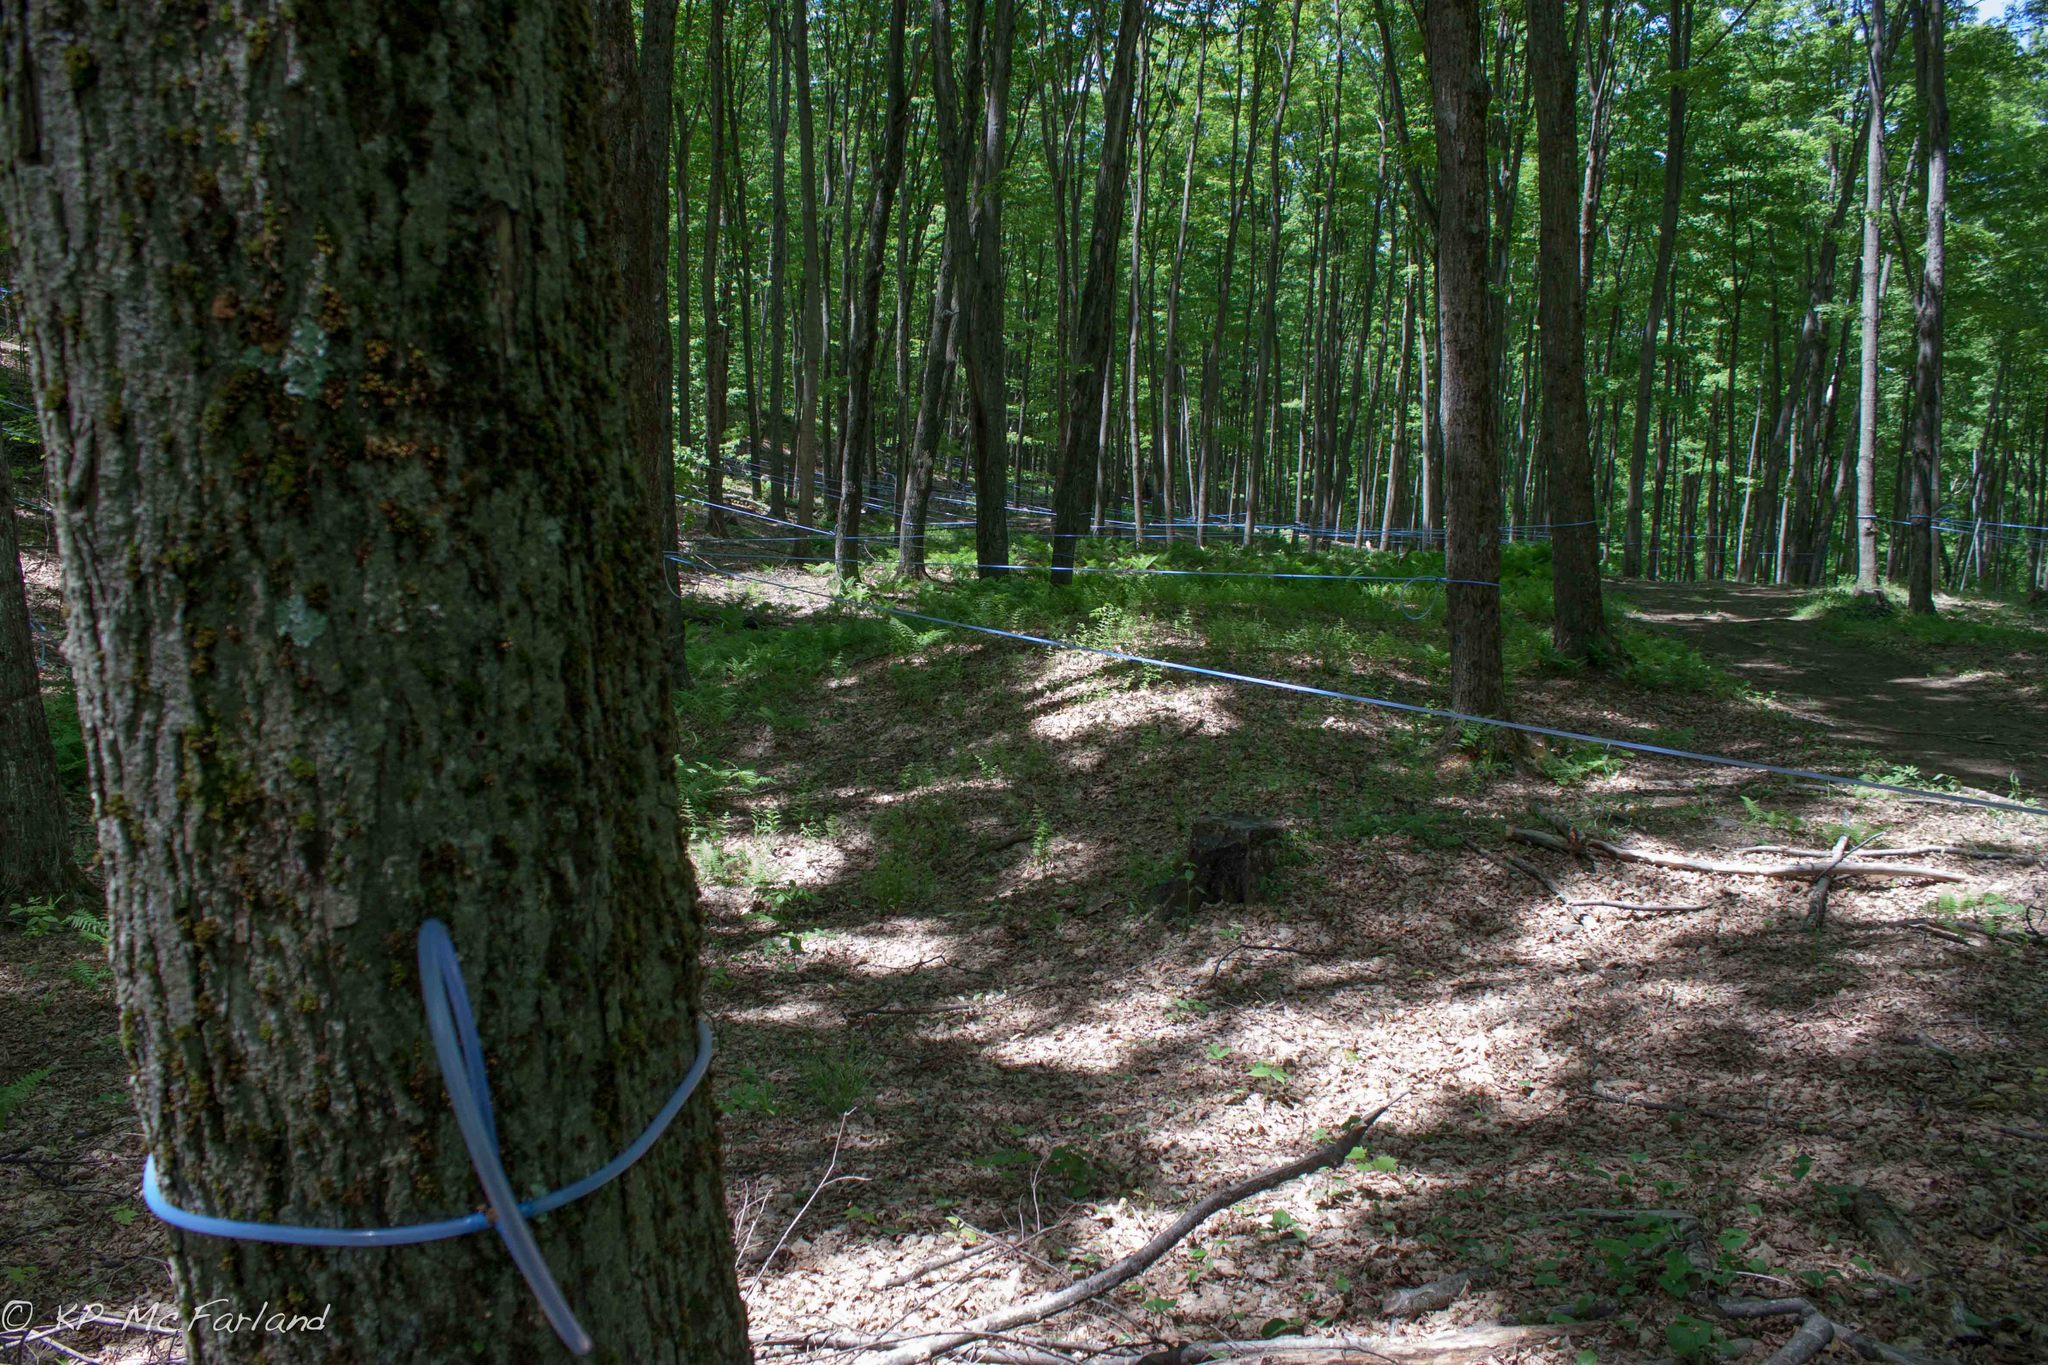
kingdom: Plantae
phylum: Tracheophyta
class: Magnoliopsida
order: Sapindales
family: Sapindaceae
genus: Acer
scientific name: Acer saccharum
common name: Sugar maple
